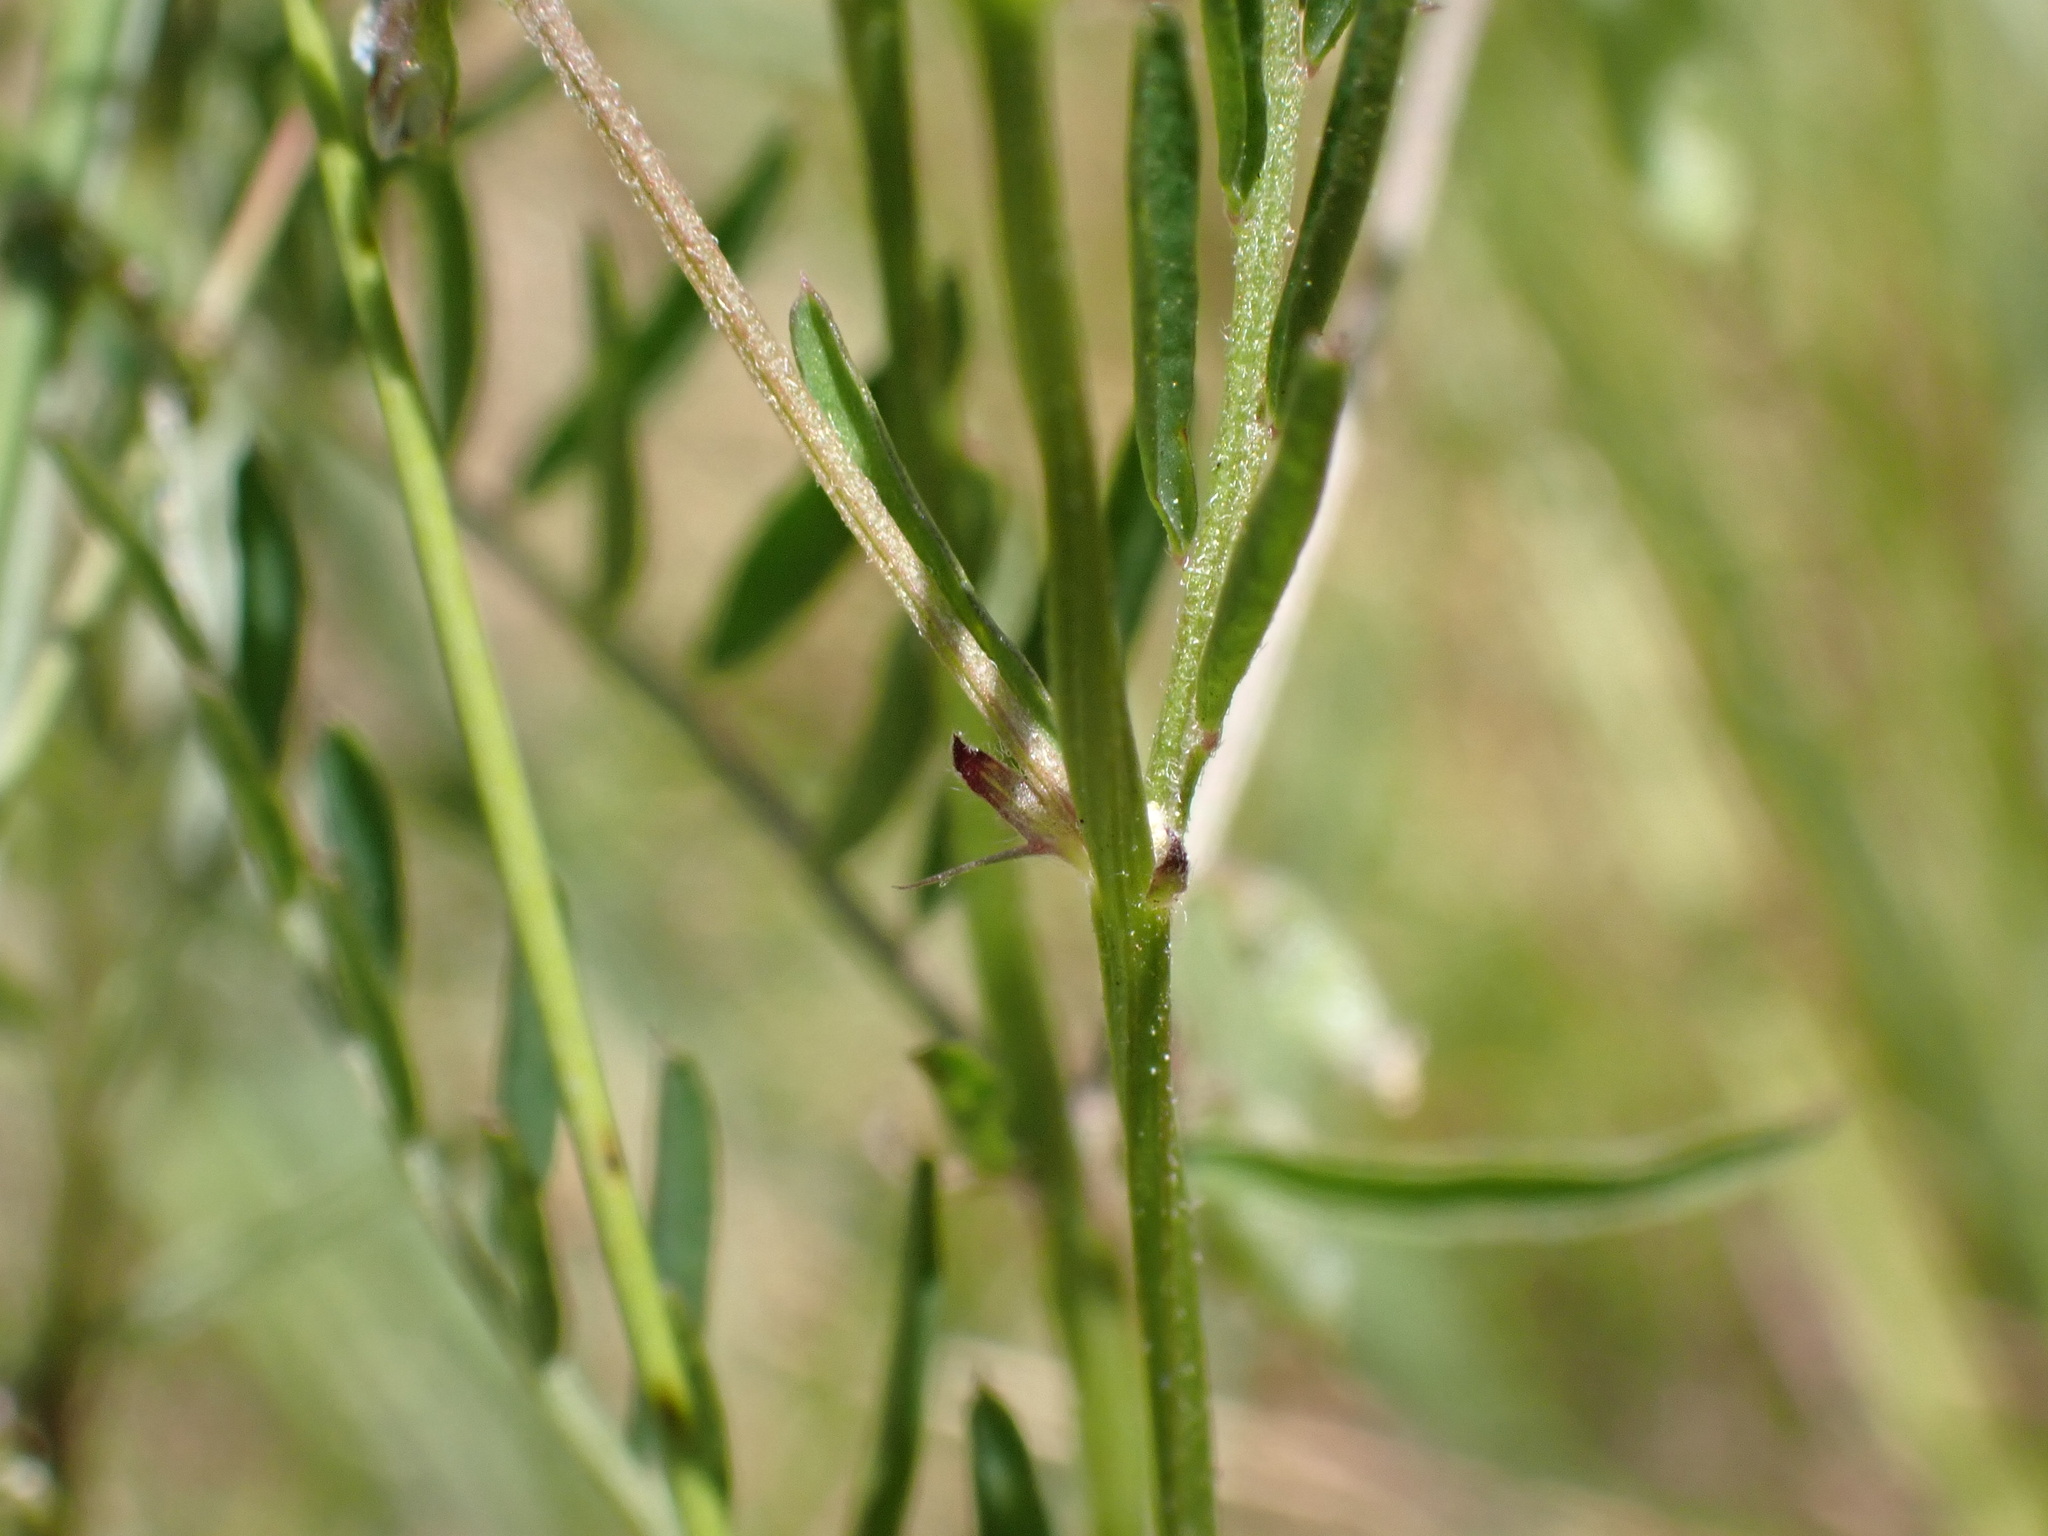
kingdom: Plantae
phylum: Tracheophyta
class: Magnoliopsida
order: Fabales
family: Fabaceae
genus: Vicia
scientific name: Vicia hirsuta
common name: Tiny vetch
